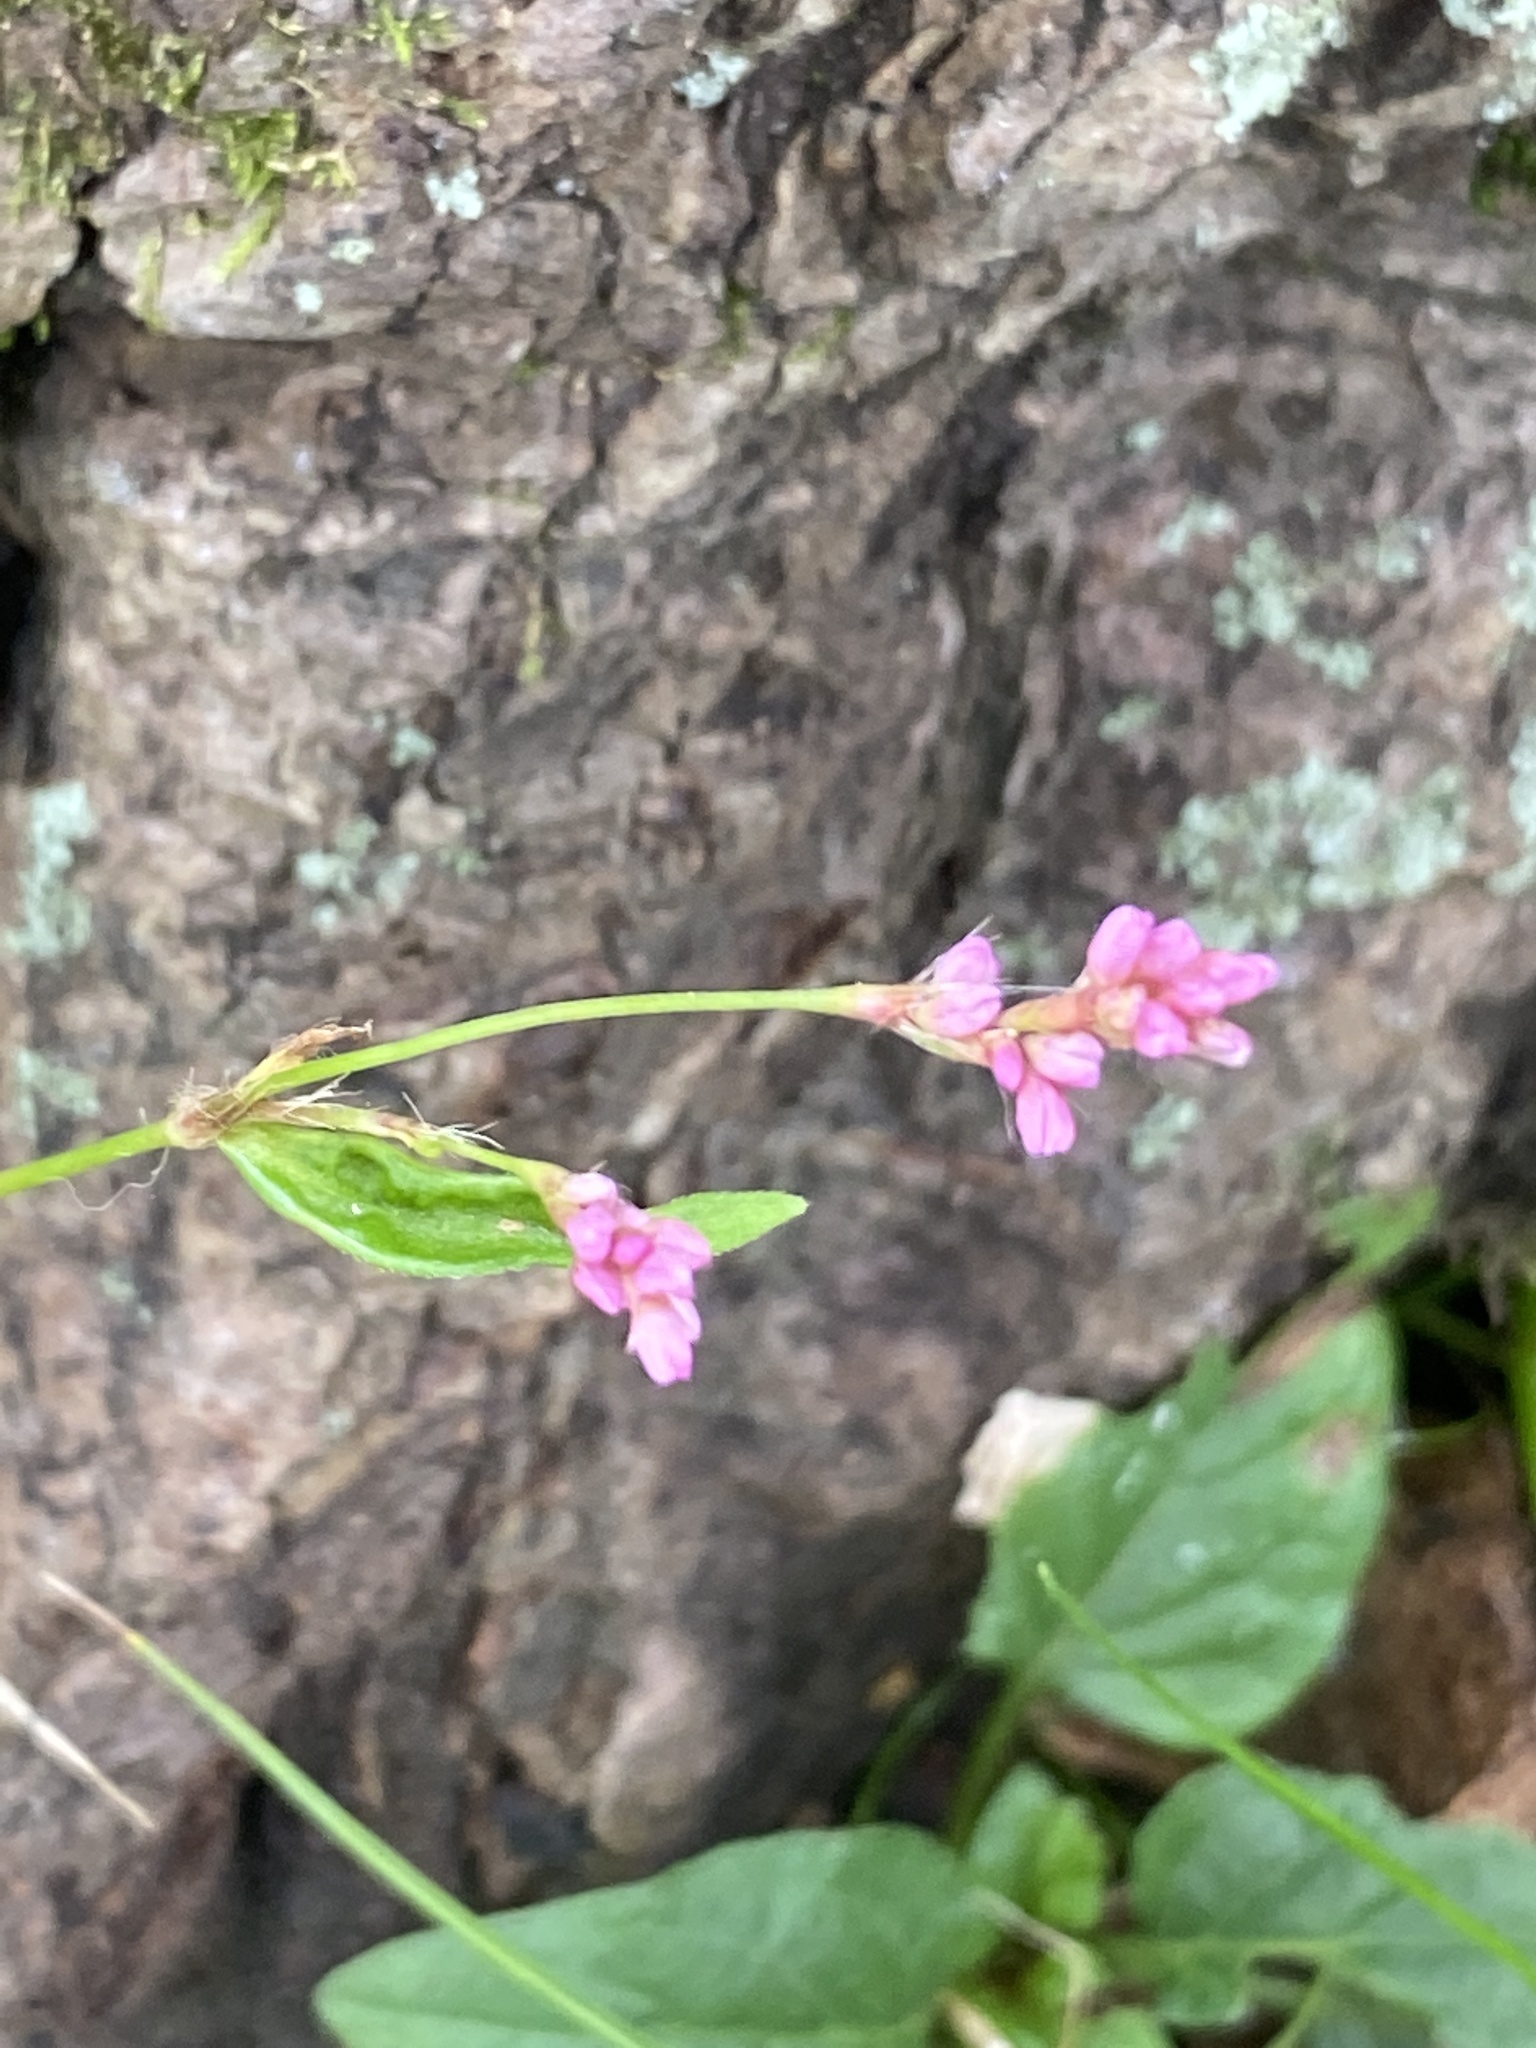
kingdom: Plantae
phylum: Tracheophyta
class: Magnoliopsida
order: Caryophyllales
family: Polygonaceae
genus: Persicaria
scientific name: Persicaria longiseta
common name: Bristly lady's-thumb
